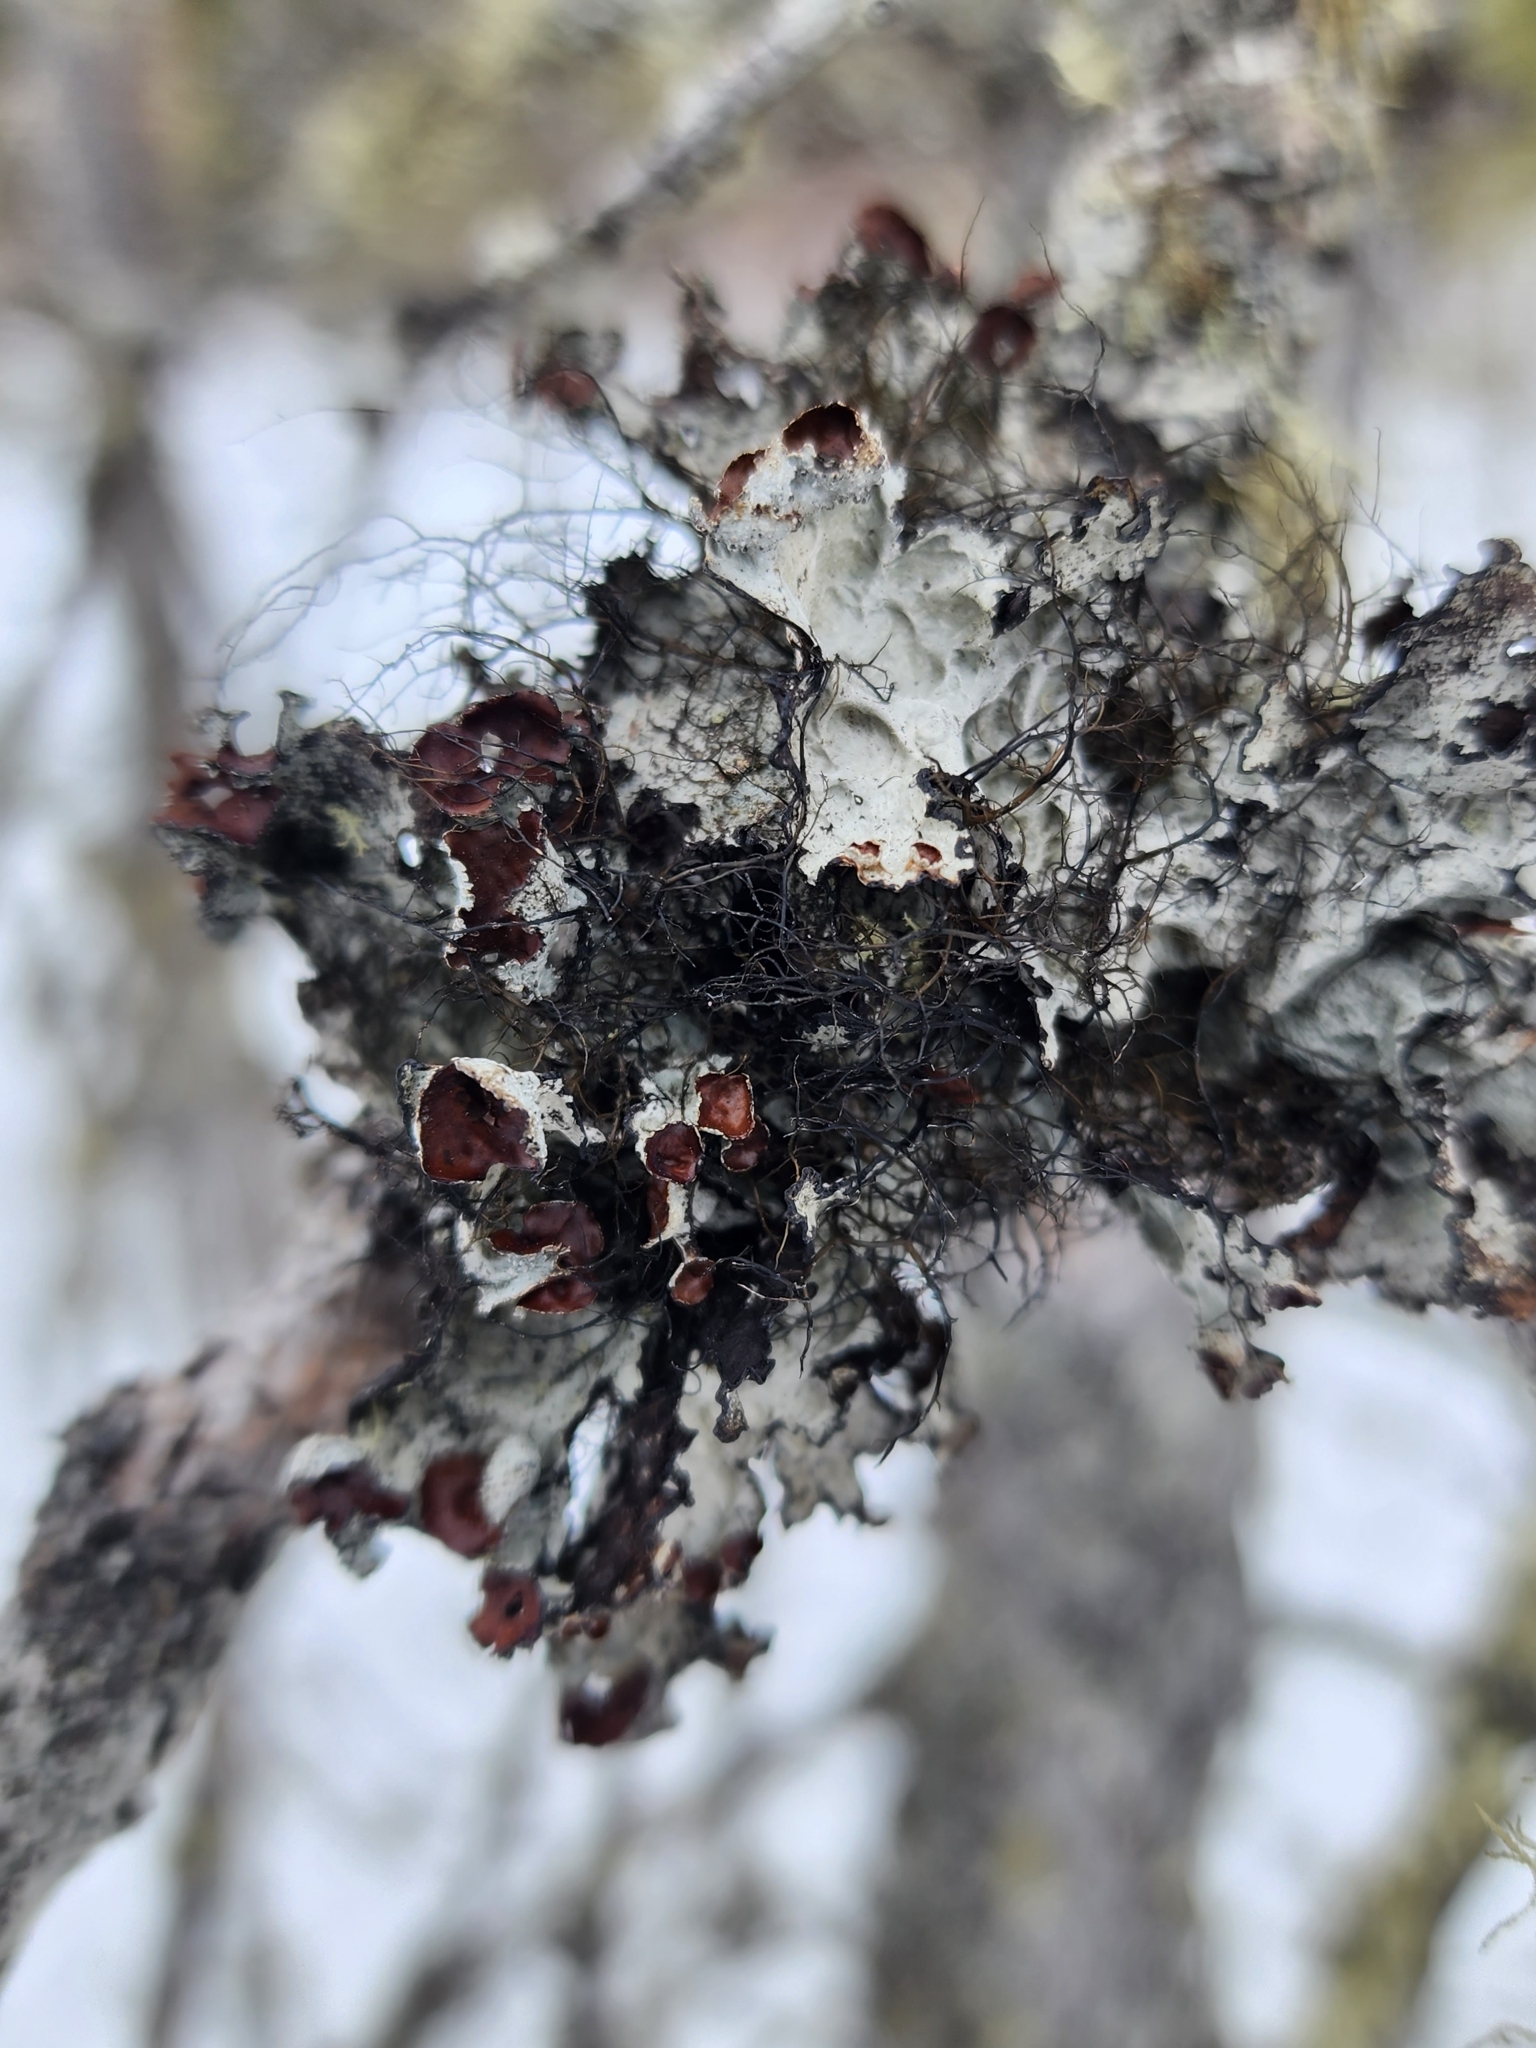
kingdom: Fungi
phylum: Ascomycota
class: Lecanoromycetes
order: Lecanorales
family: Parmeliaceae
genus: Platismatia
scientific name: Platismatia tuckermanii
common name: Crumpled rag lichen
